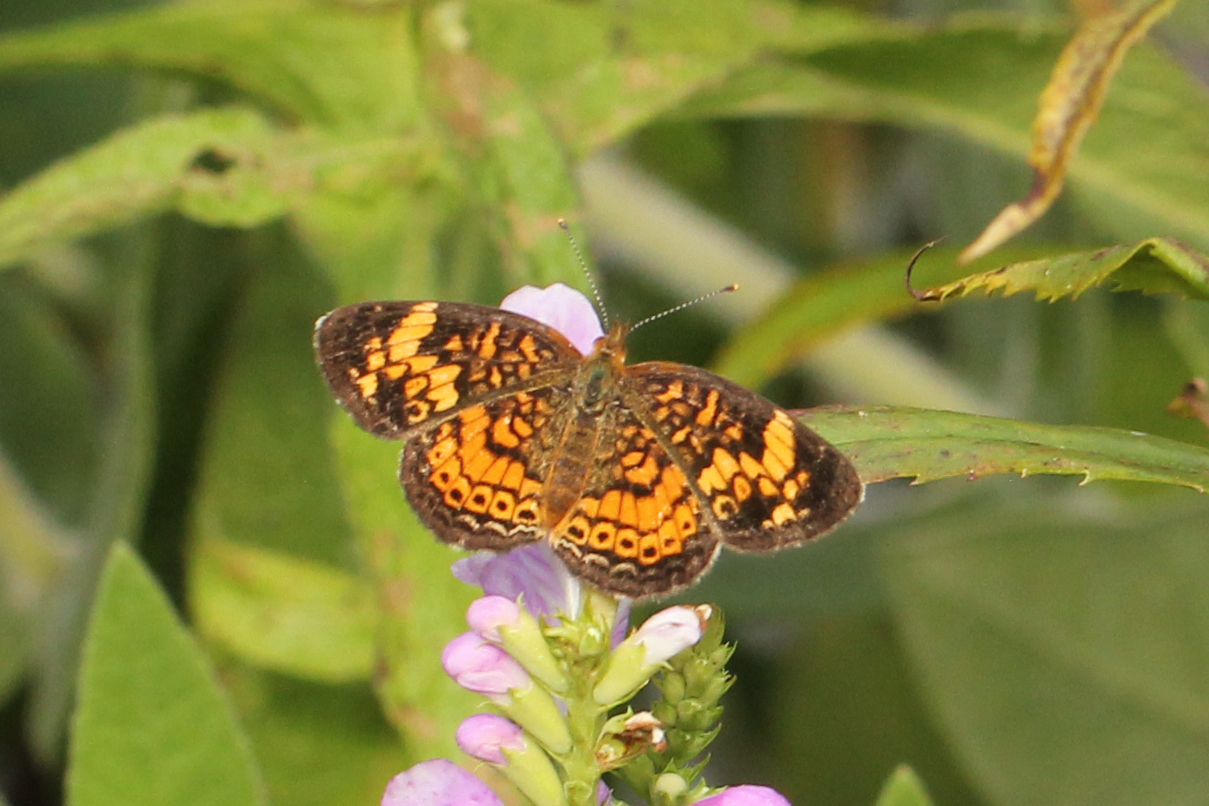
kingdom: Animalia
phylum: Arthropoda
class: Insecta
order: Lepidoptera
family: Nymphalidae
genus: Phyciodes
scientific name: Phyciodes tharos
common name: Pearl crescent
